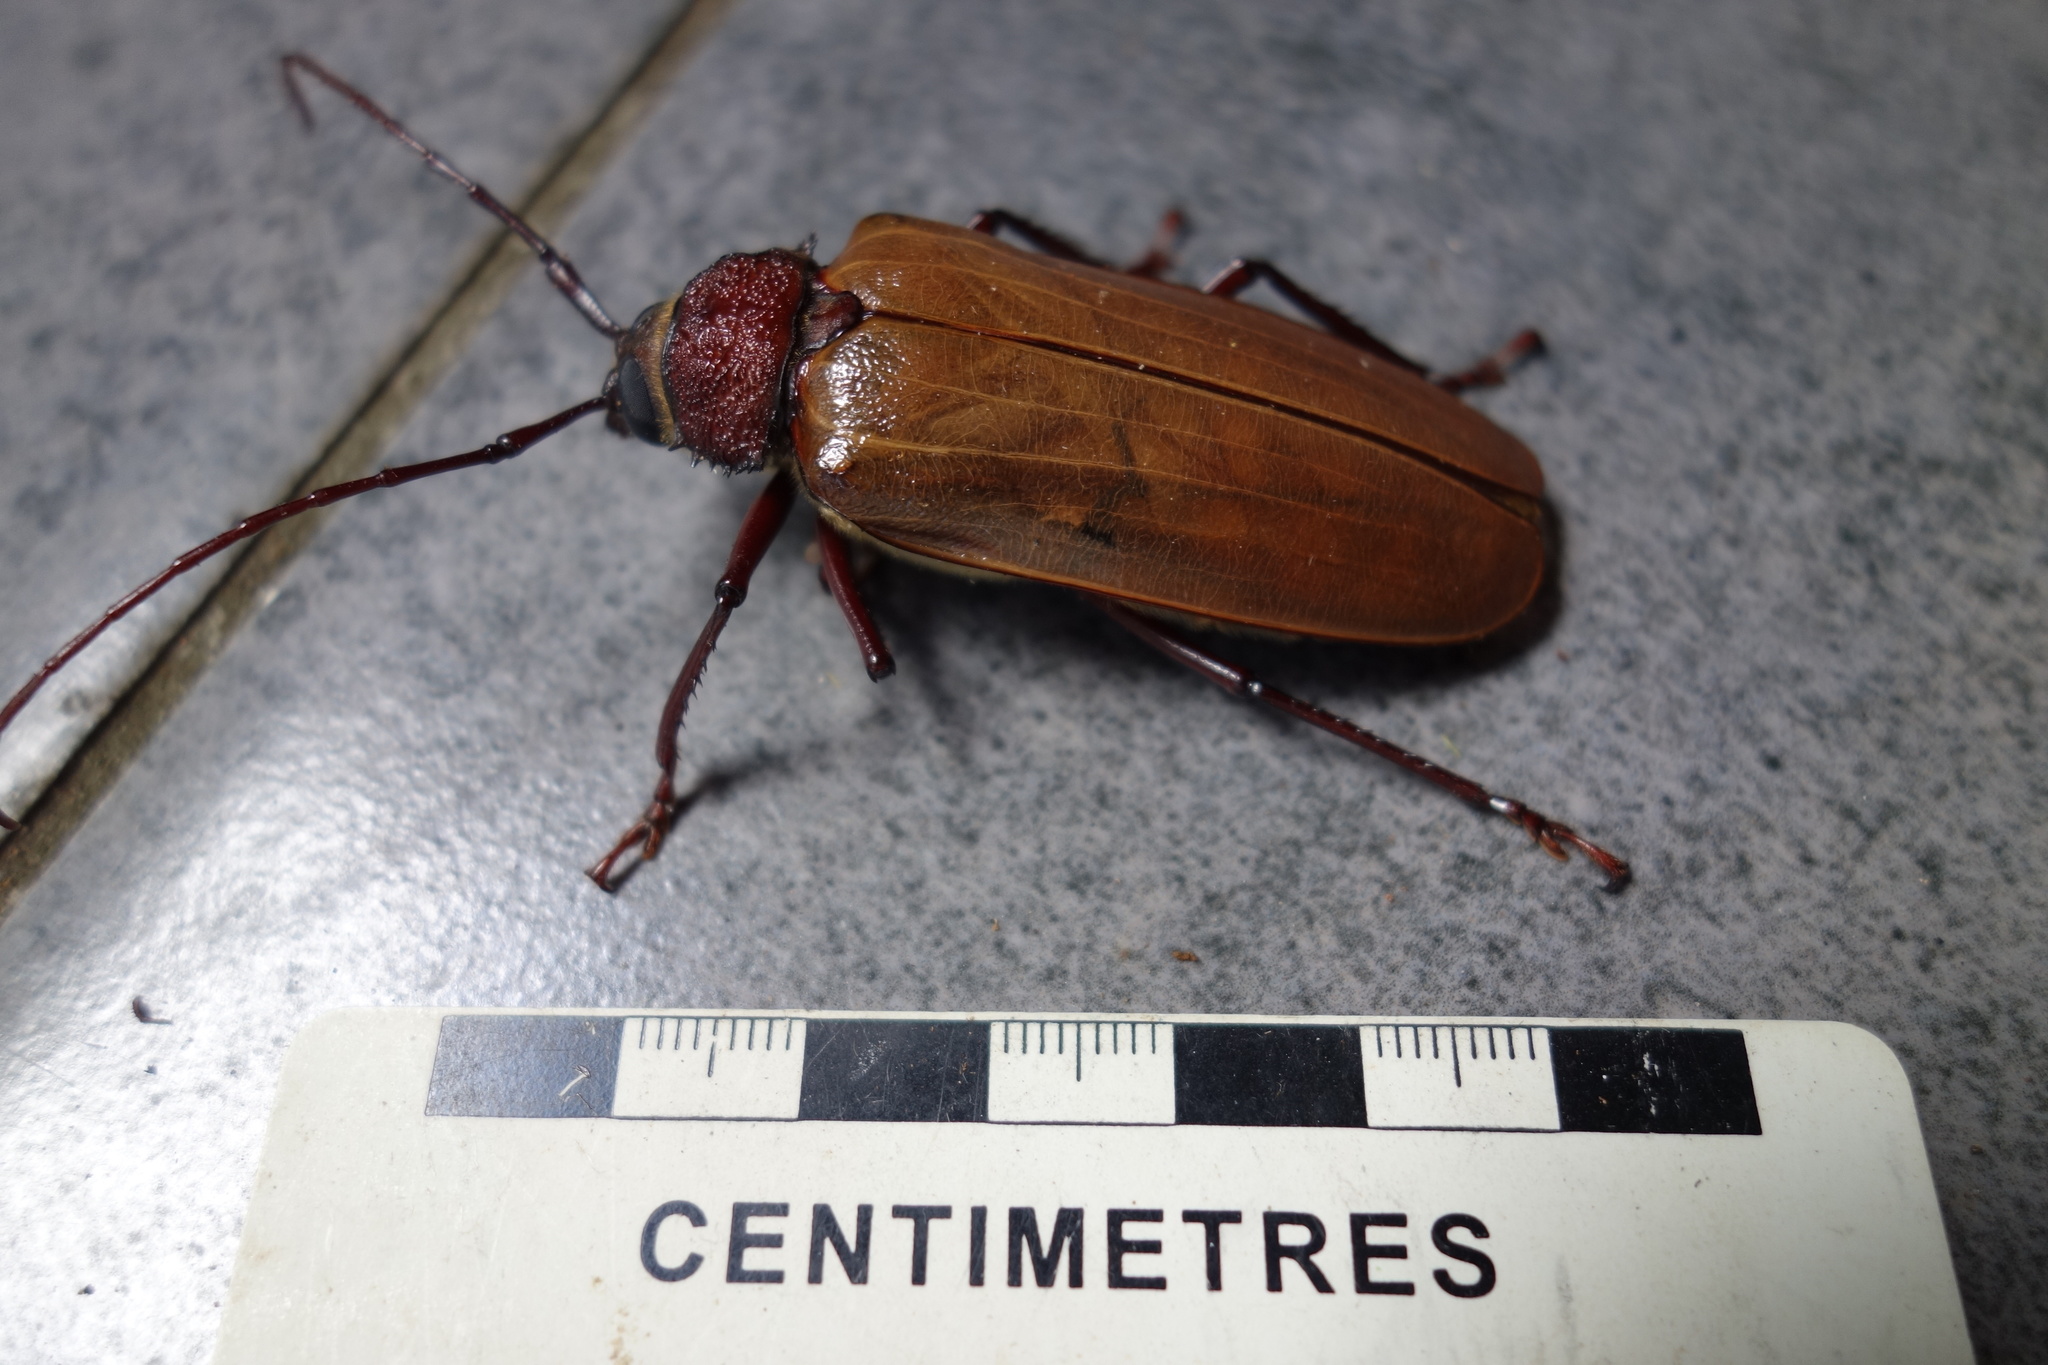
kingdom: Animalia
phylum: Arthropoda
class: Insecta
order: Coleoptera
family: Cerambycidae
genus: Agrianome
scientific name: Agrianome spinicollis
